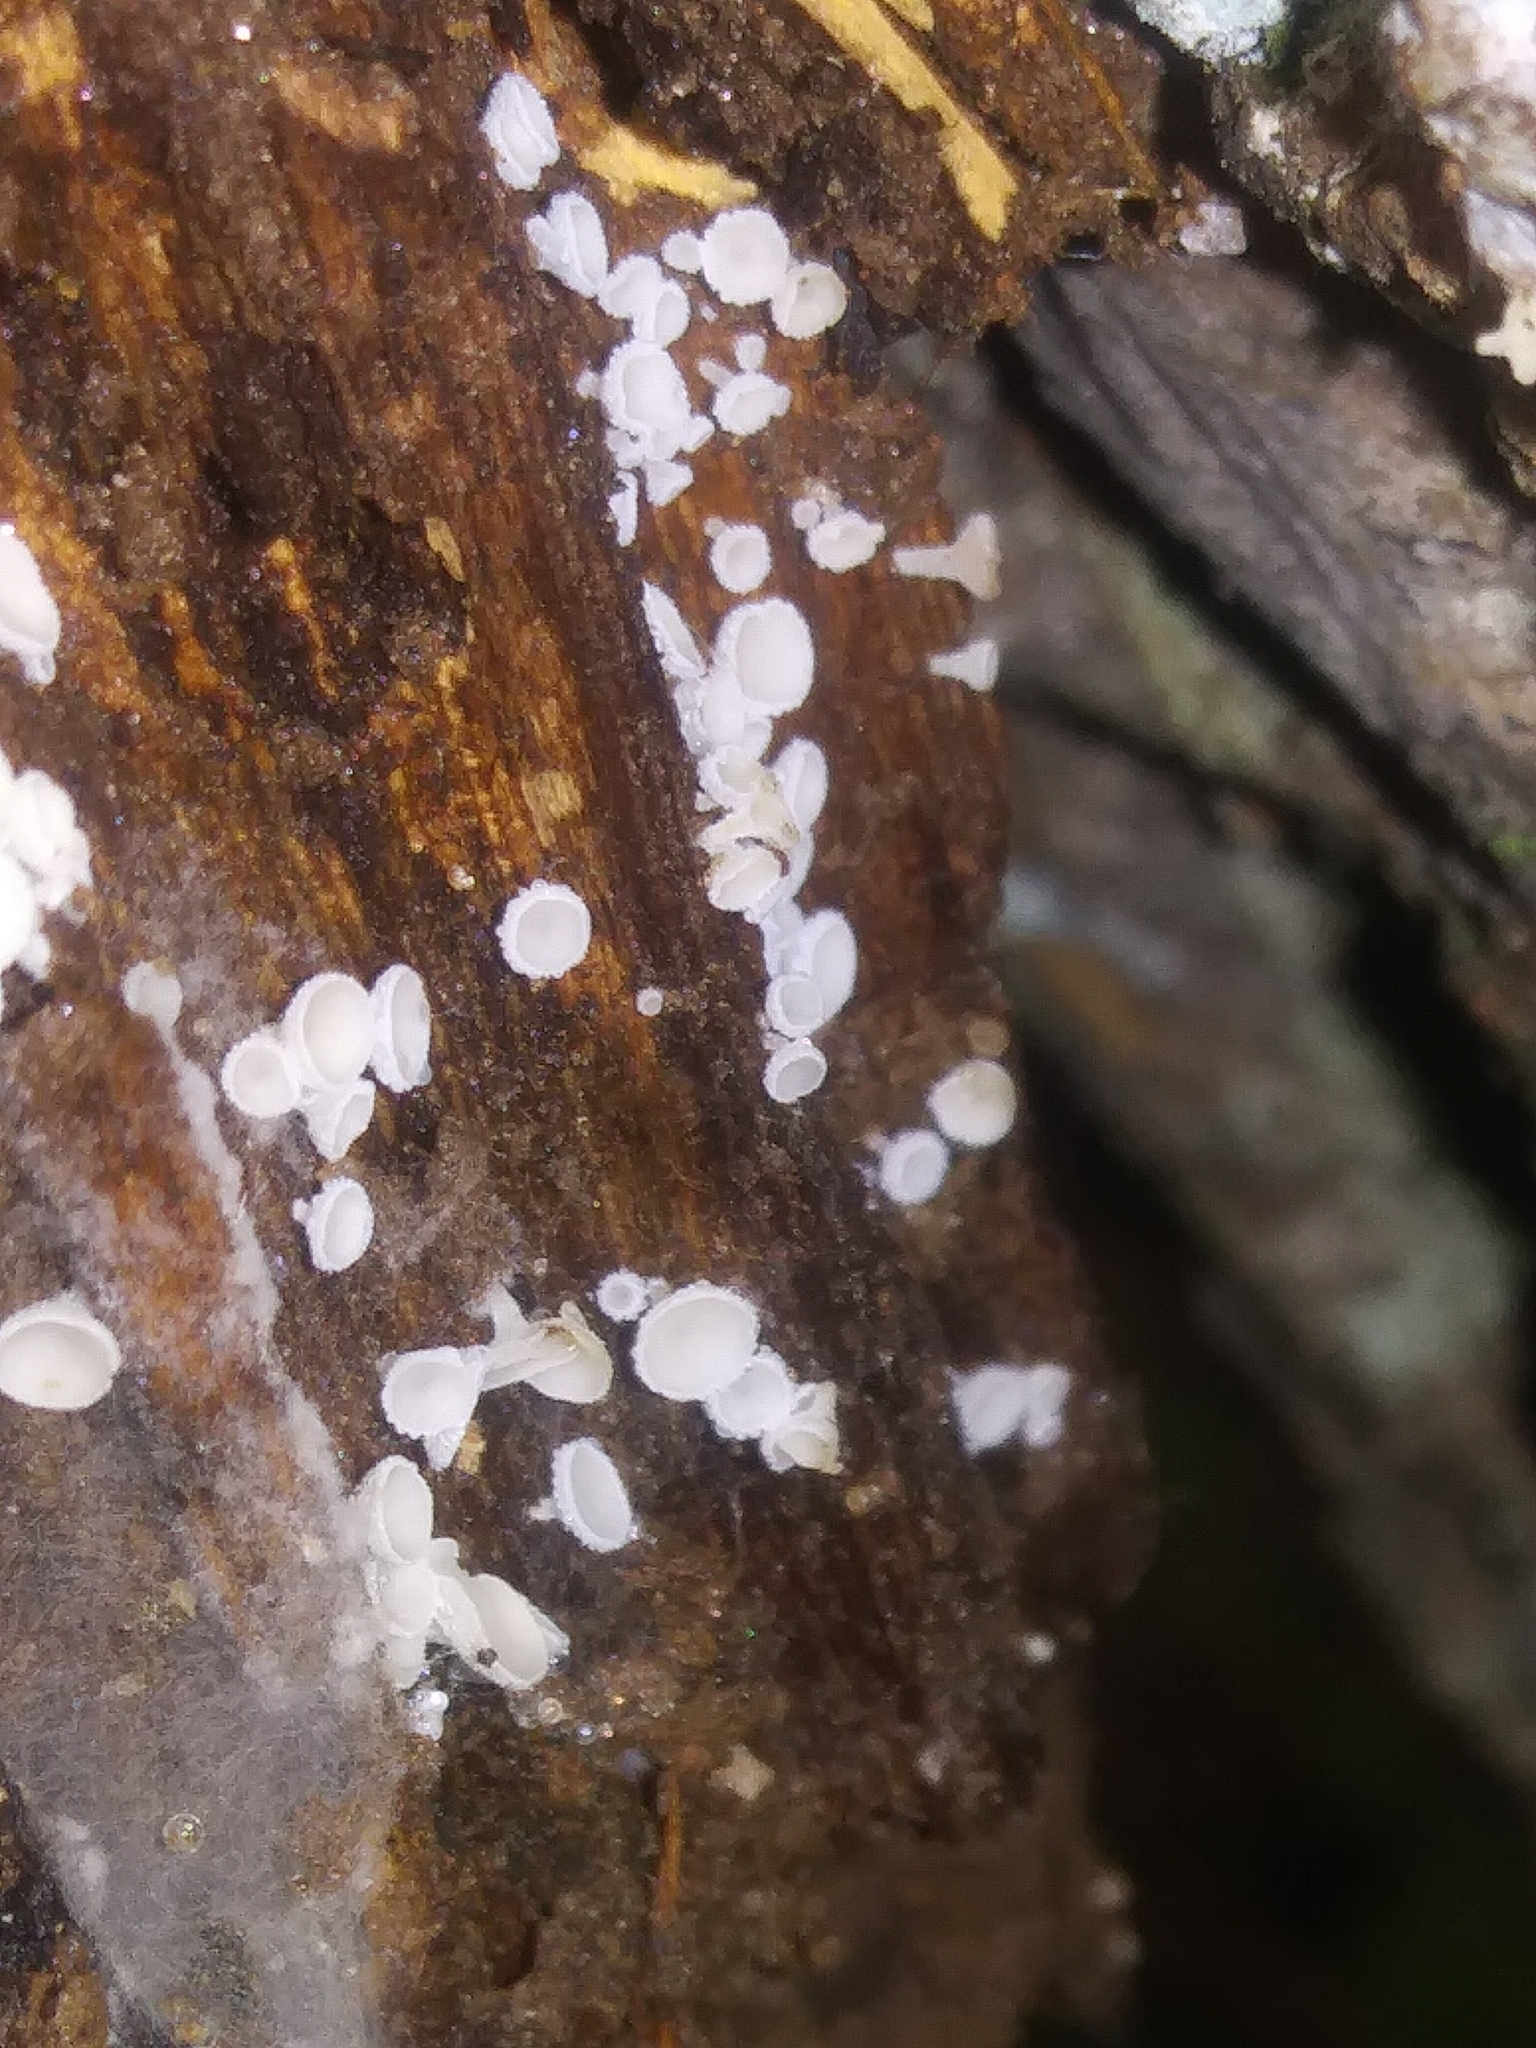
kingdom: Fungi
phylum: Ascomycota
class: Leotiomycetes
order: Helotiales
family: Lachnaceae
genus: Lachnum
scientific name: Lachnum virgineum
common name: Snowy disco
